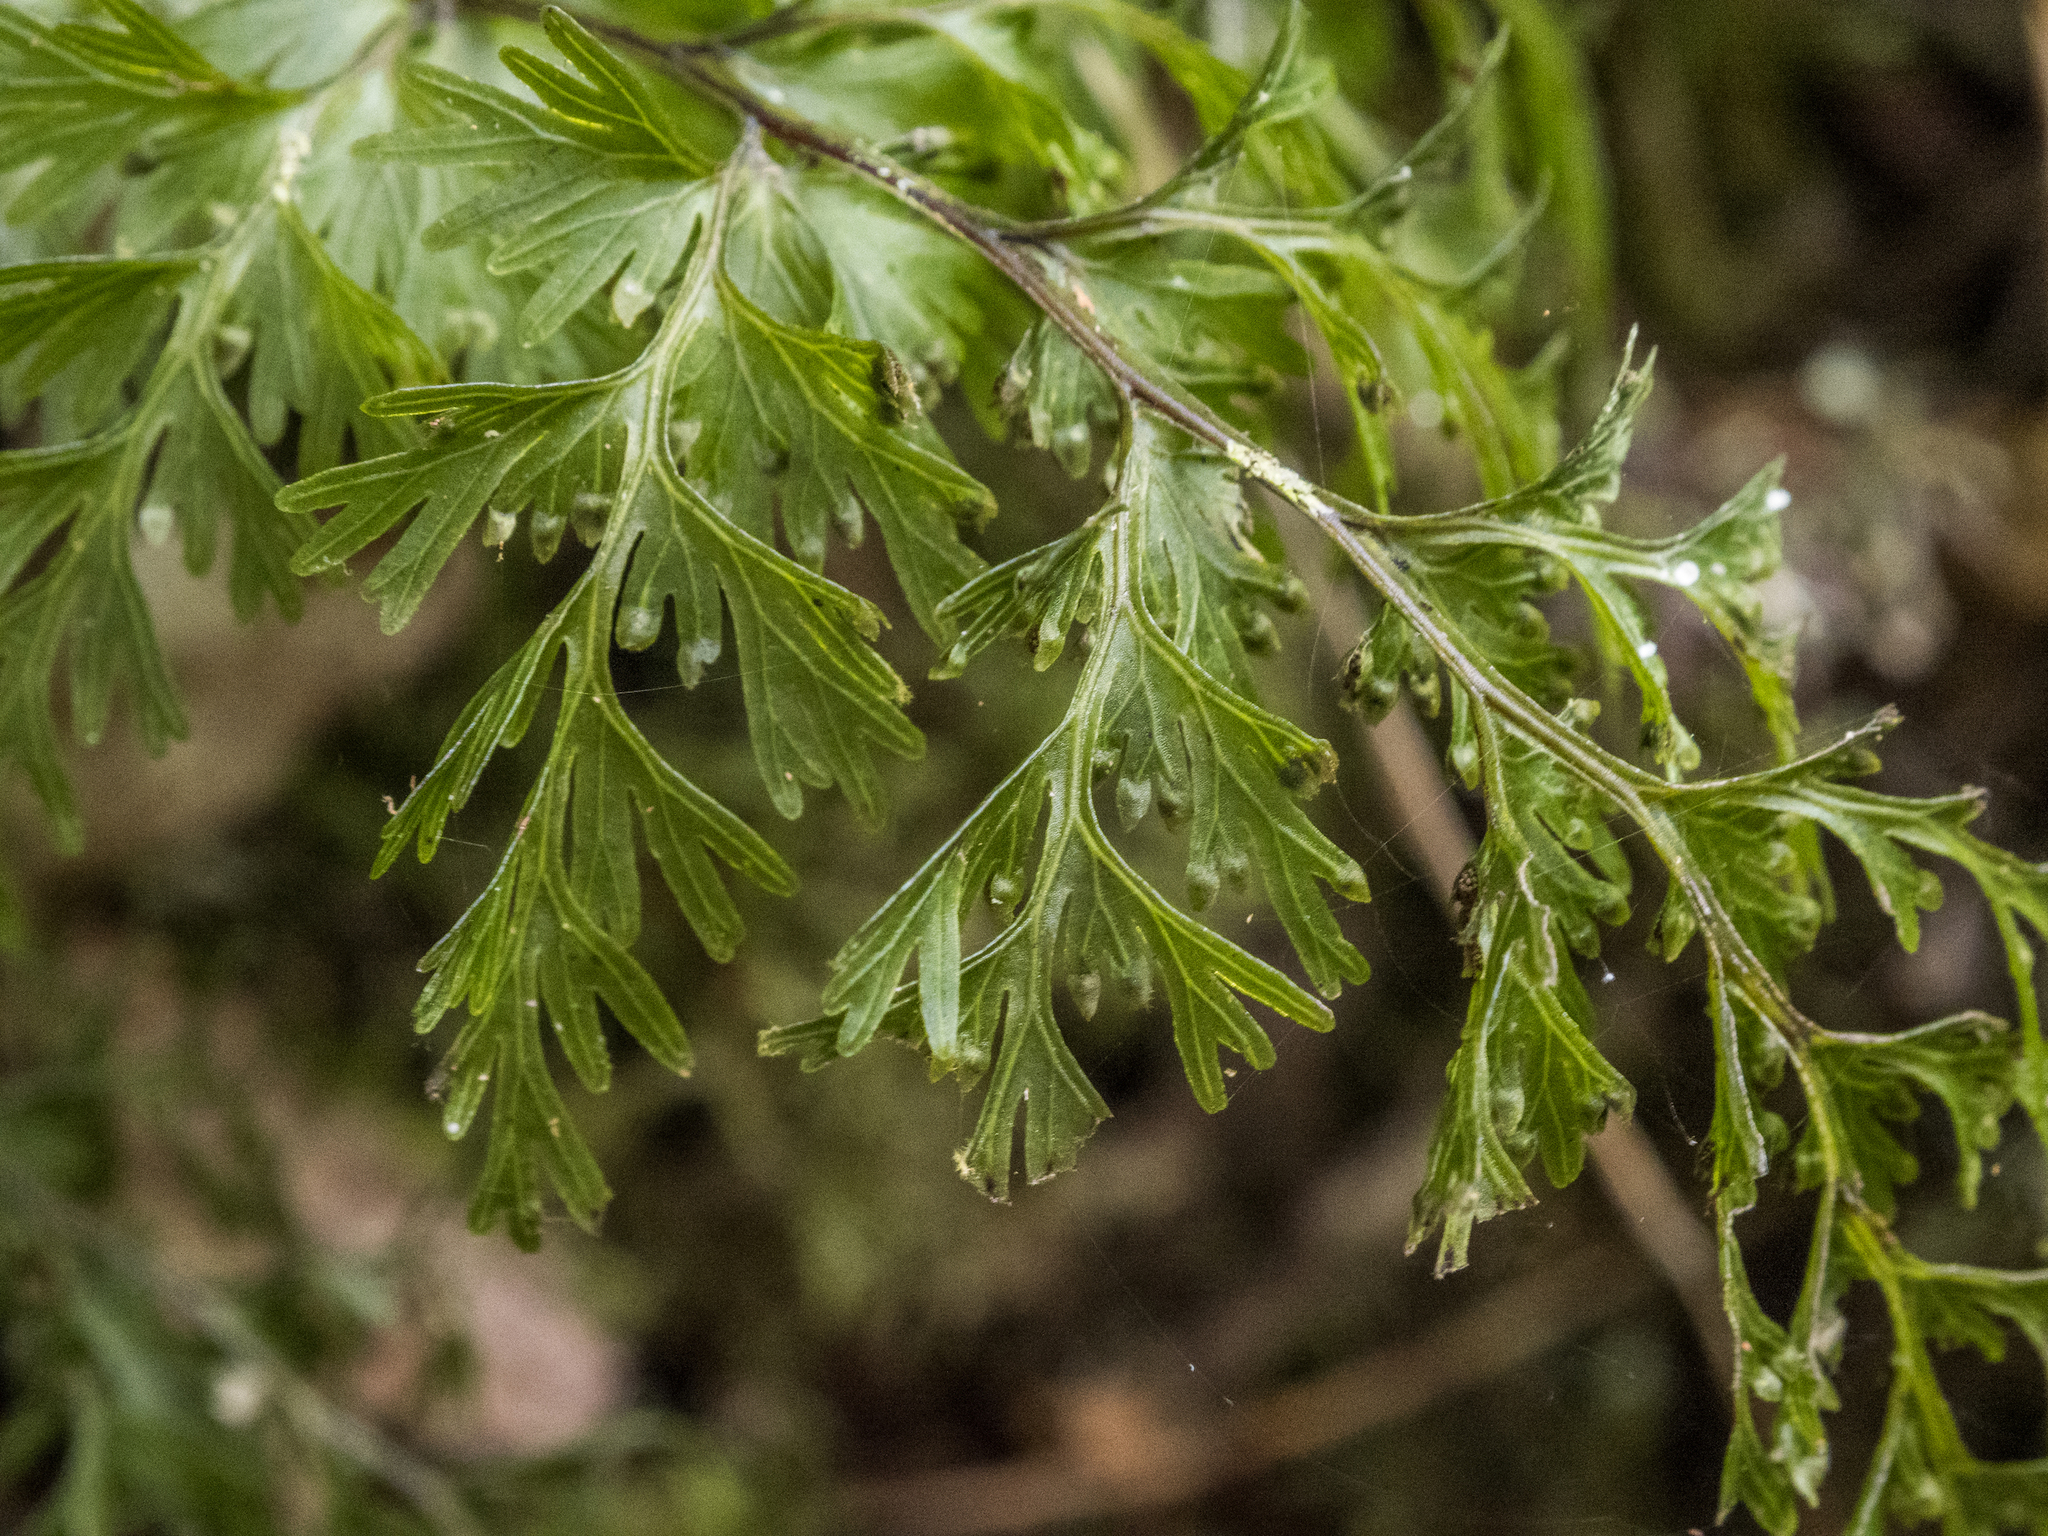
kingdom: Plantae
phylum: Tracheophyta
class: Polypodiopsida
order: Hymenophyllales
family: Hymenophyllaceae
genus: Hymenophyllum
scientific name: Hymenophyllum demissum
